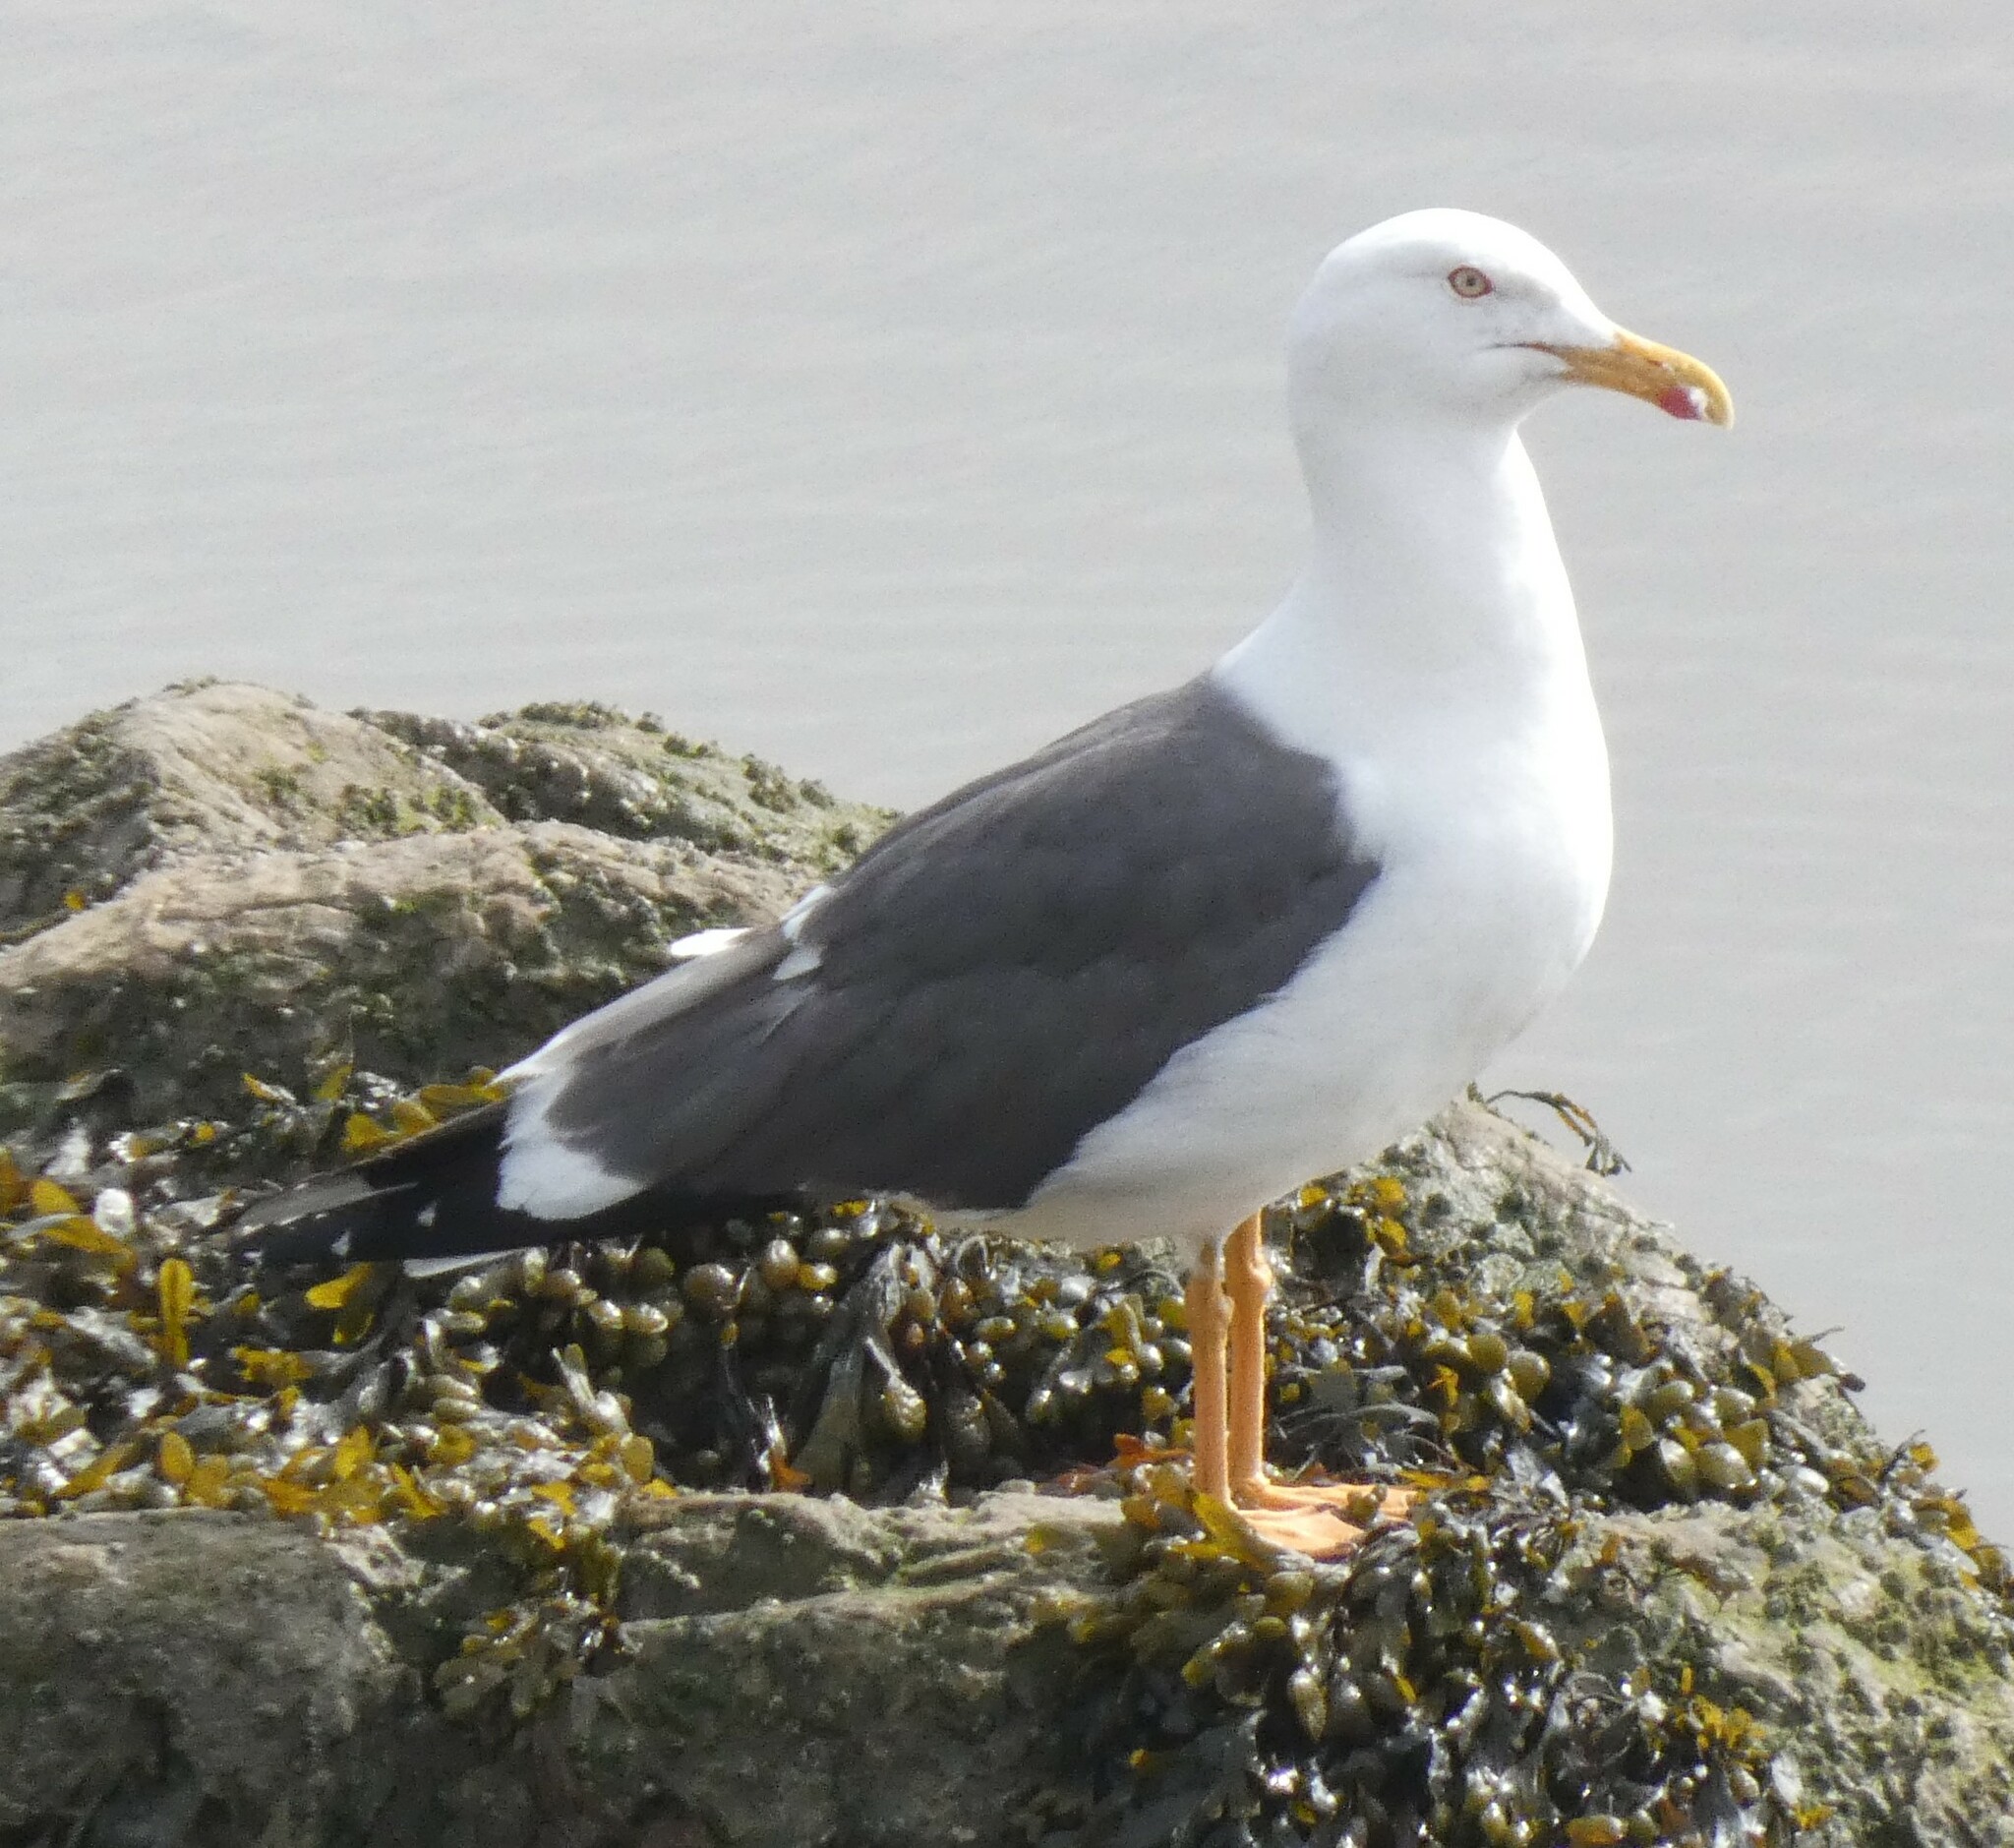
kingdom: Animalia
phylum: Chordata
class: Aves
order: Charadriiformes
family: Laridae
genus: Larus
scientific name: Larus fuscus
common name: Lesser black-backed gull
